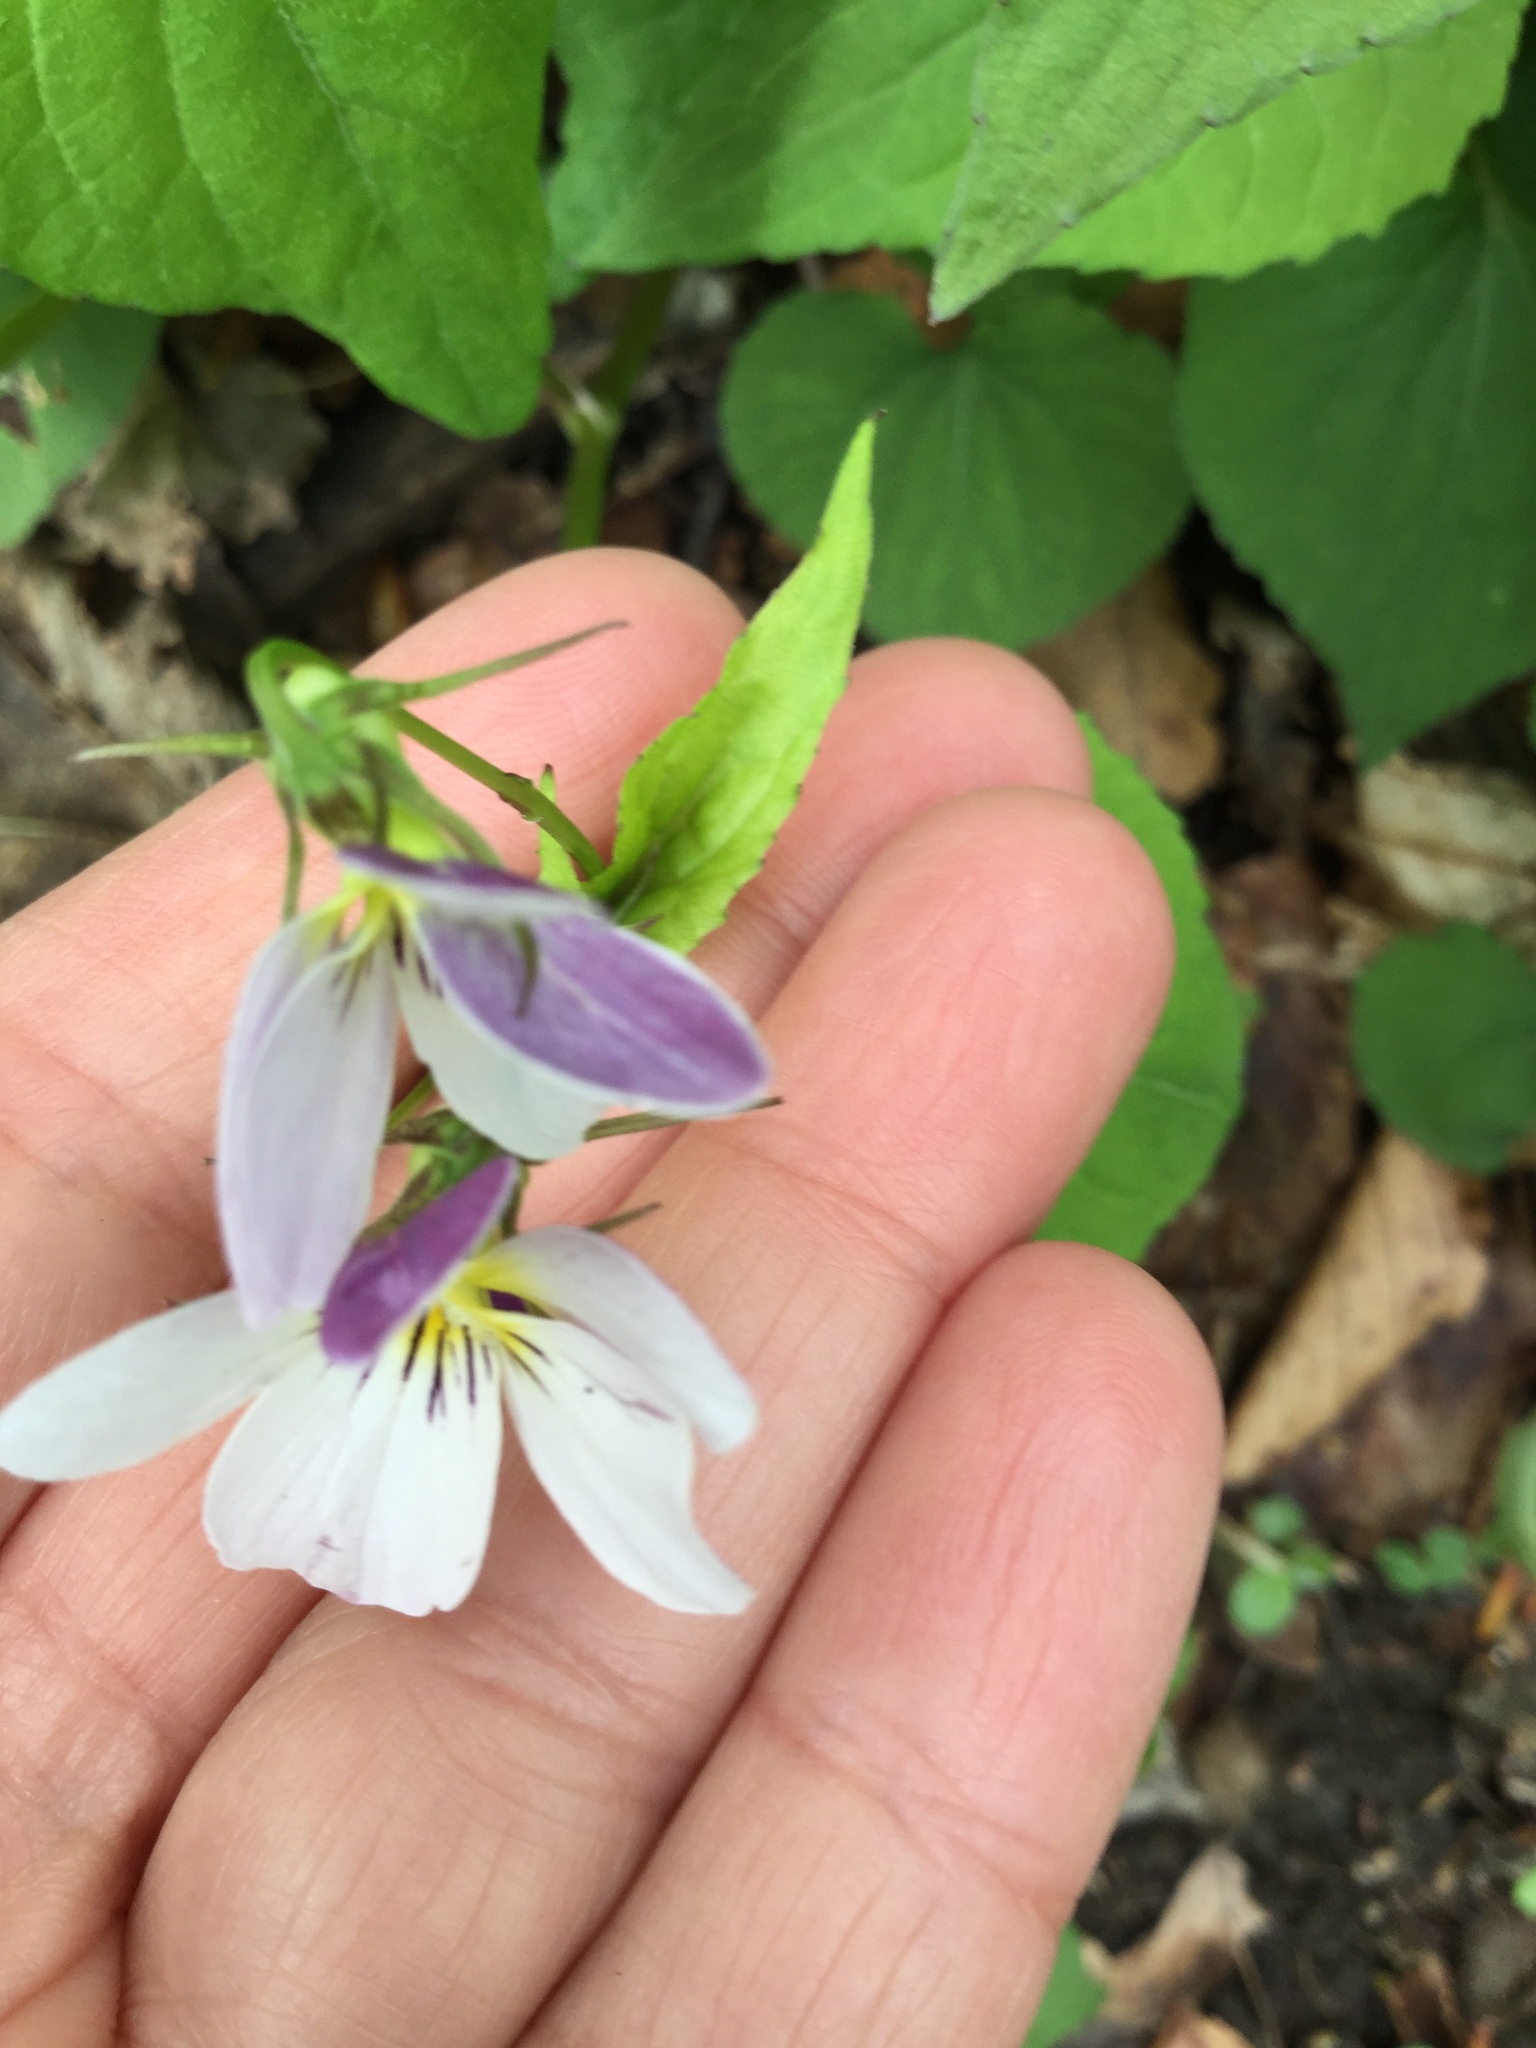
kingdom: Plantae
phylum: Tracheophyta
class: Magnoliopsida
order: Malpighiales
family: Violaceae
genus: Viola
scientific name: Viola canadensis
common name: Canada violet
